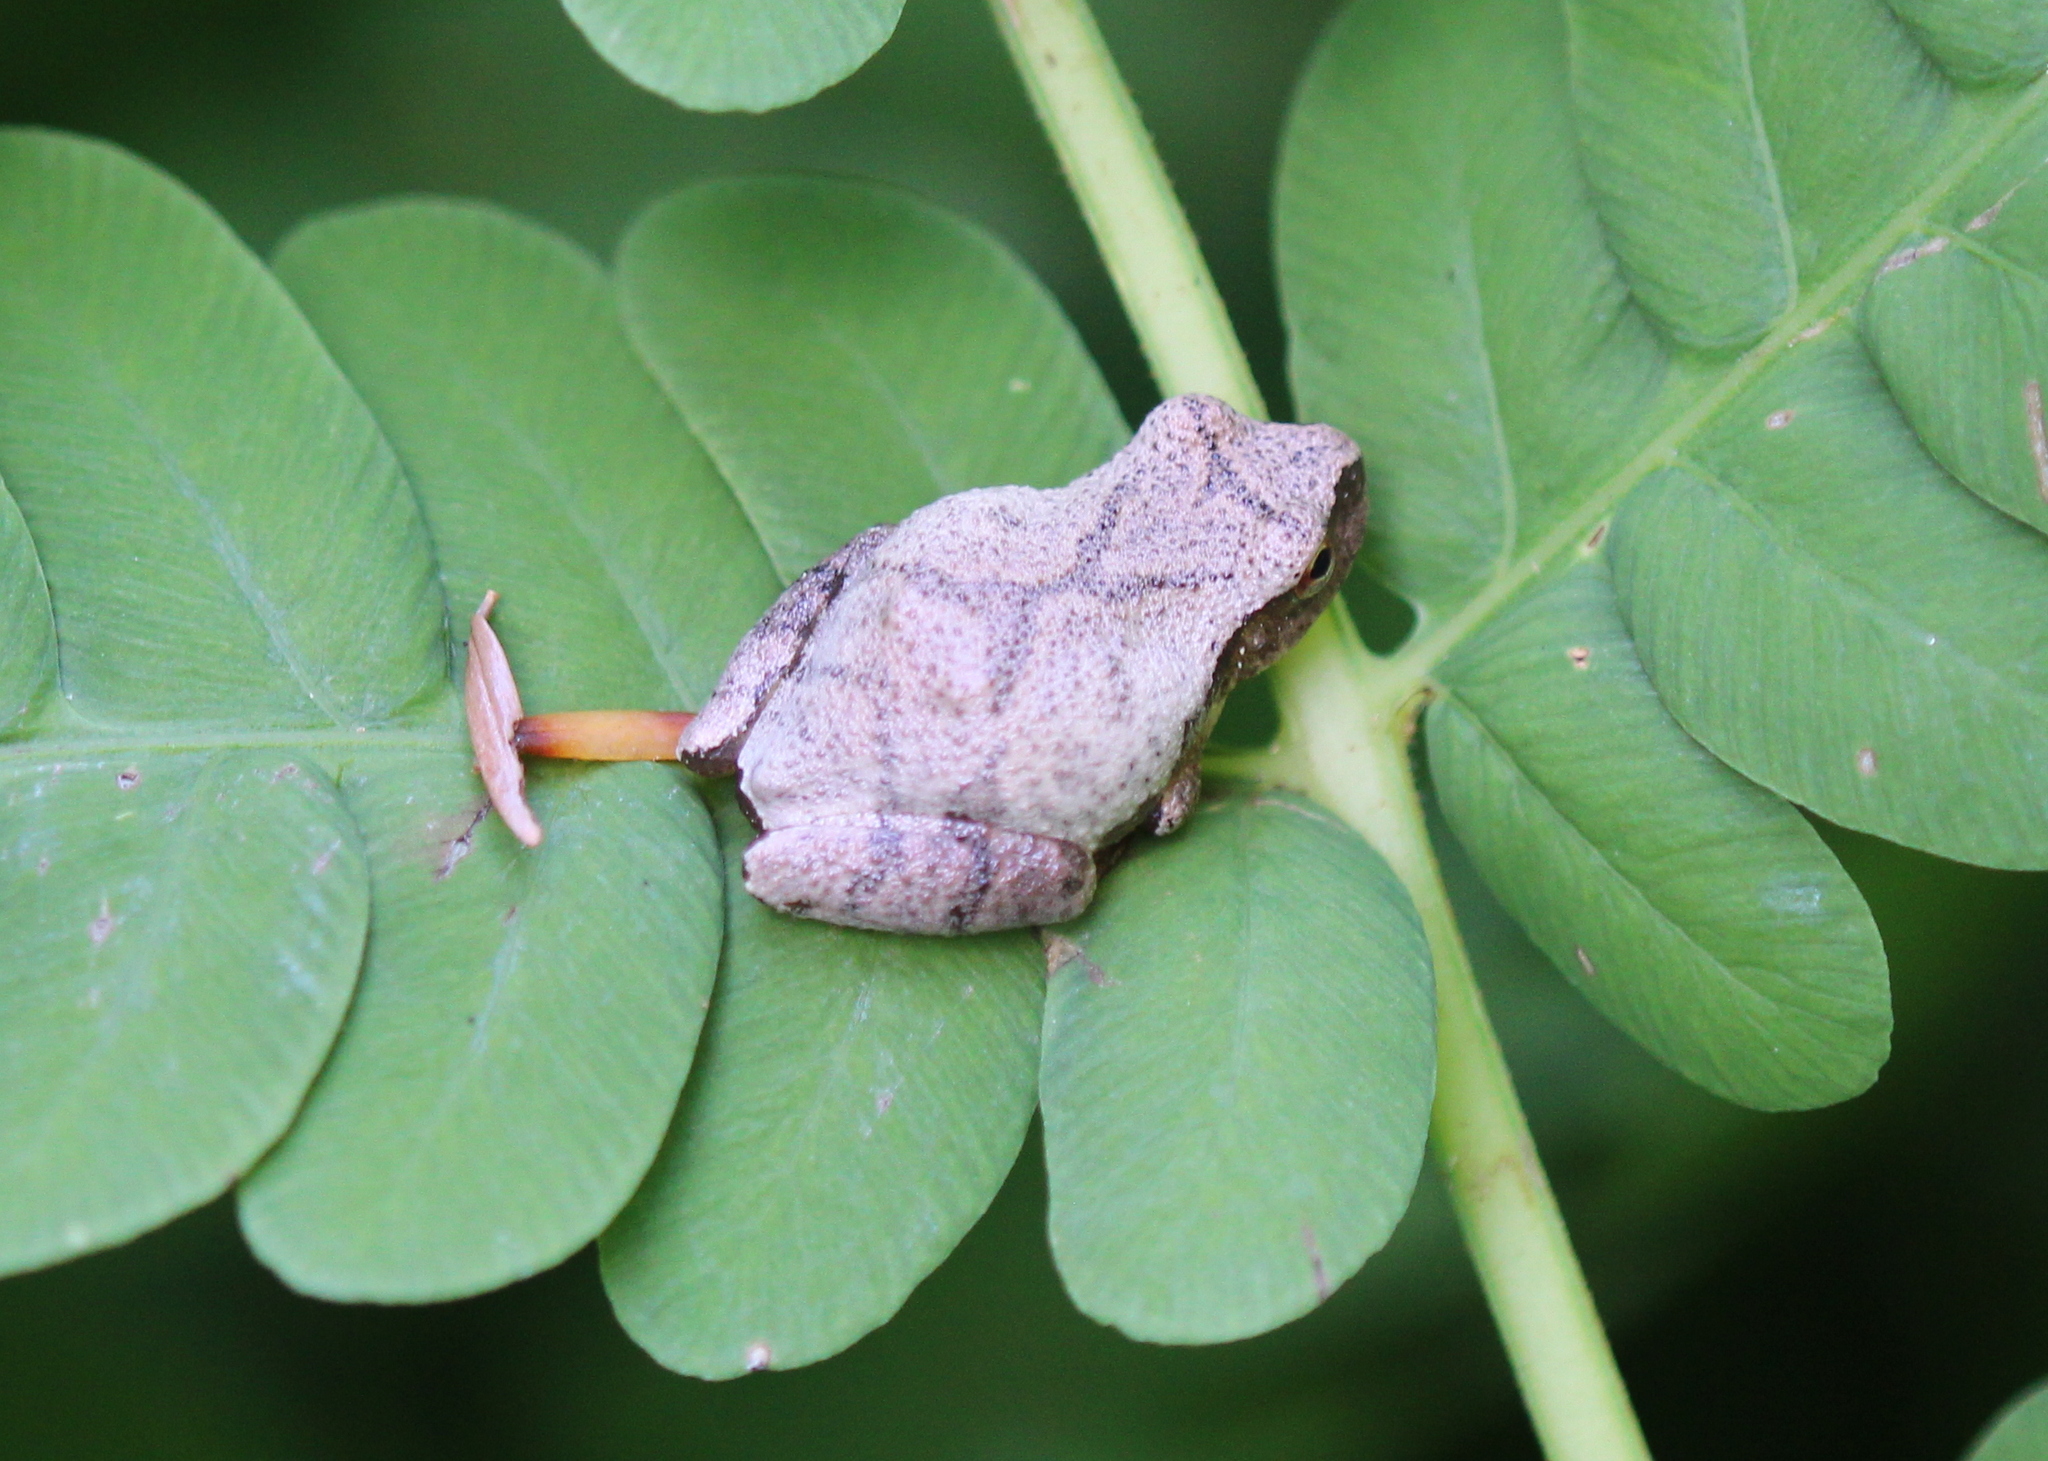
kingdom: Animalia
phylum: Chordata
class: Amphibia
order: Anura
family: Hylidae
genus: Pseudacris
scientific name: Pseudacris crucifer
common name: Spring peeper
